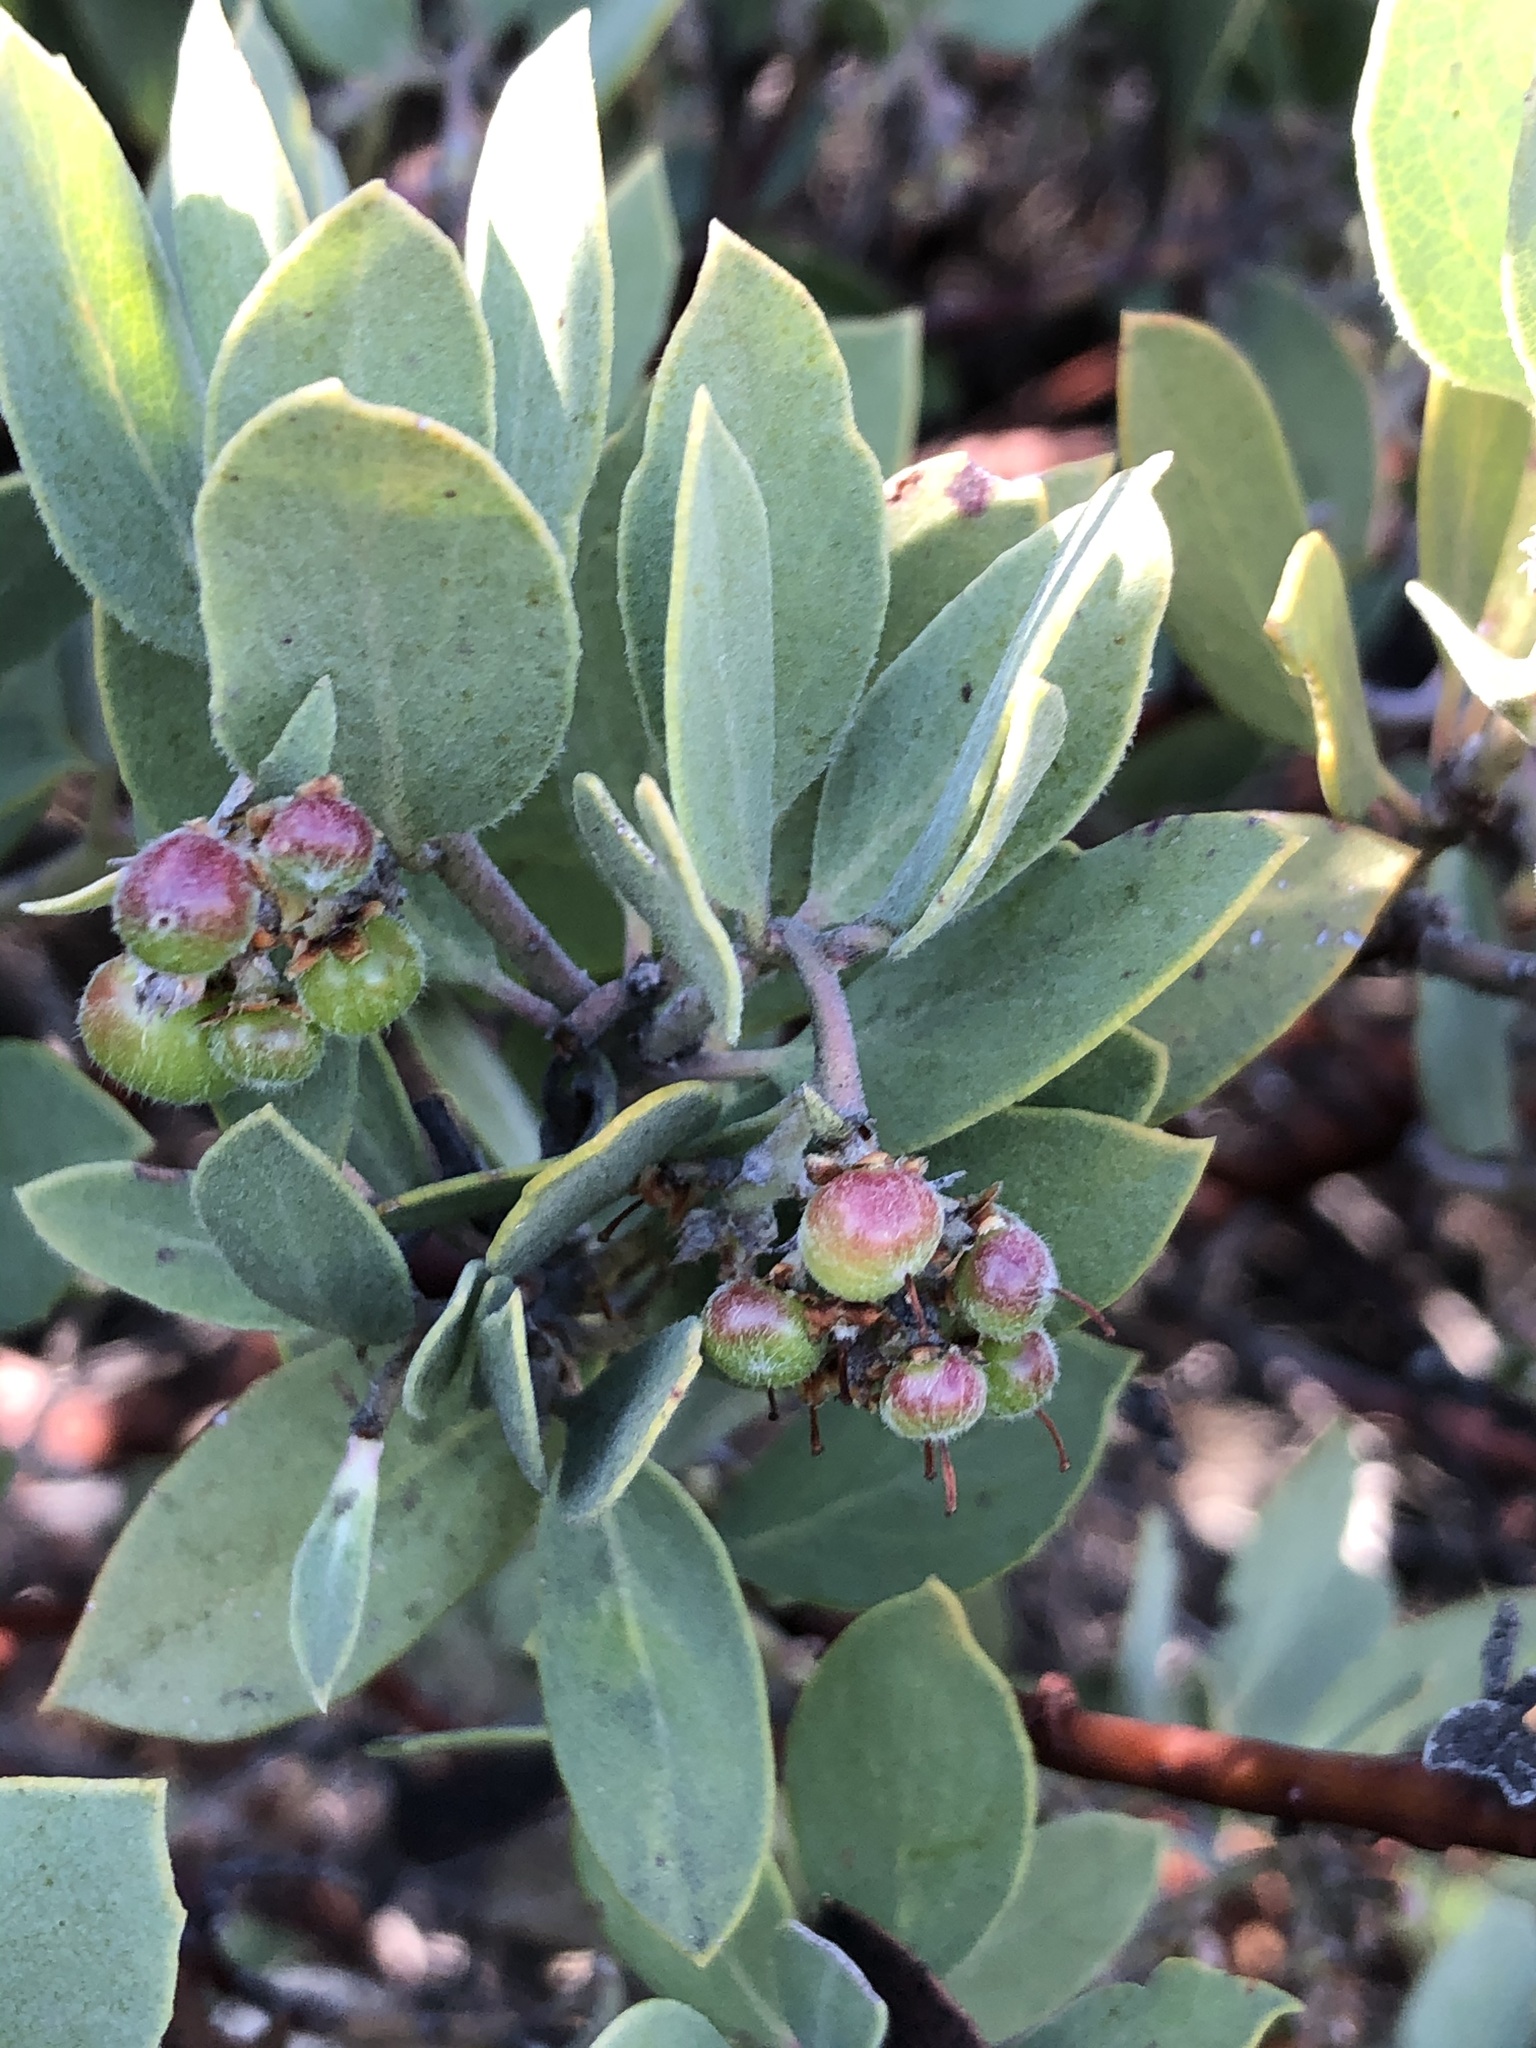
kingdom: Plantae
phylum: Tracheophyta
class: Magnoliopsida
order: Ericales
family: Ericaceae
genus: Arctostaphylos
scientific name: Arctostaphylos glandulosa
